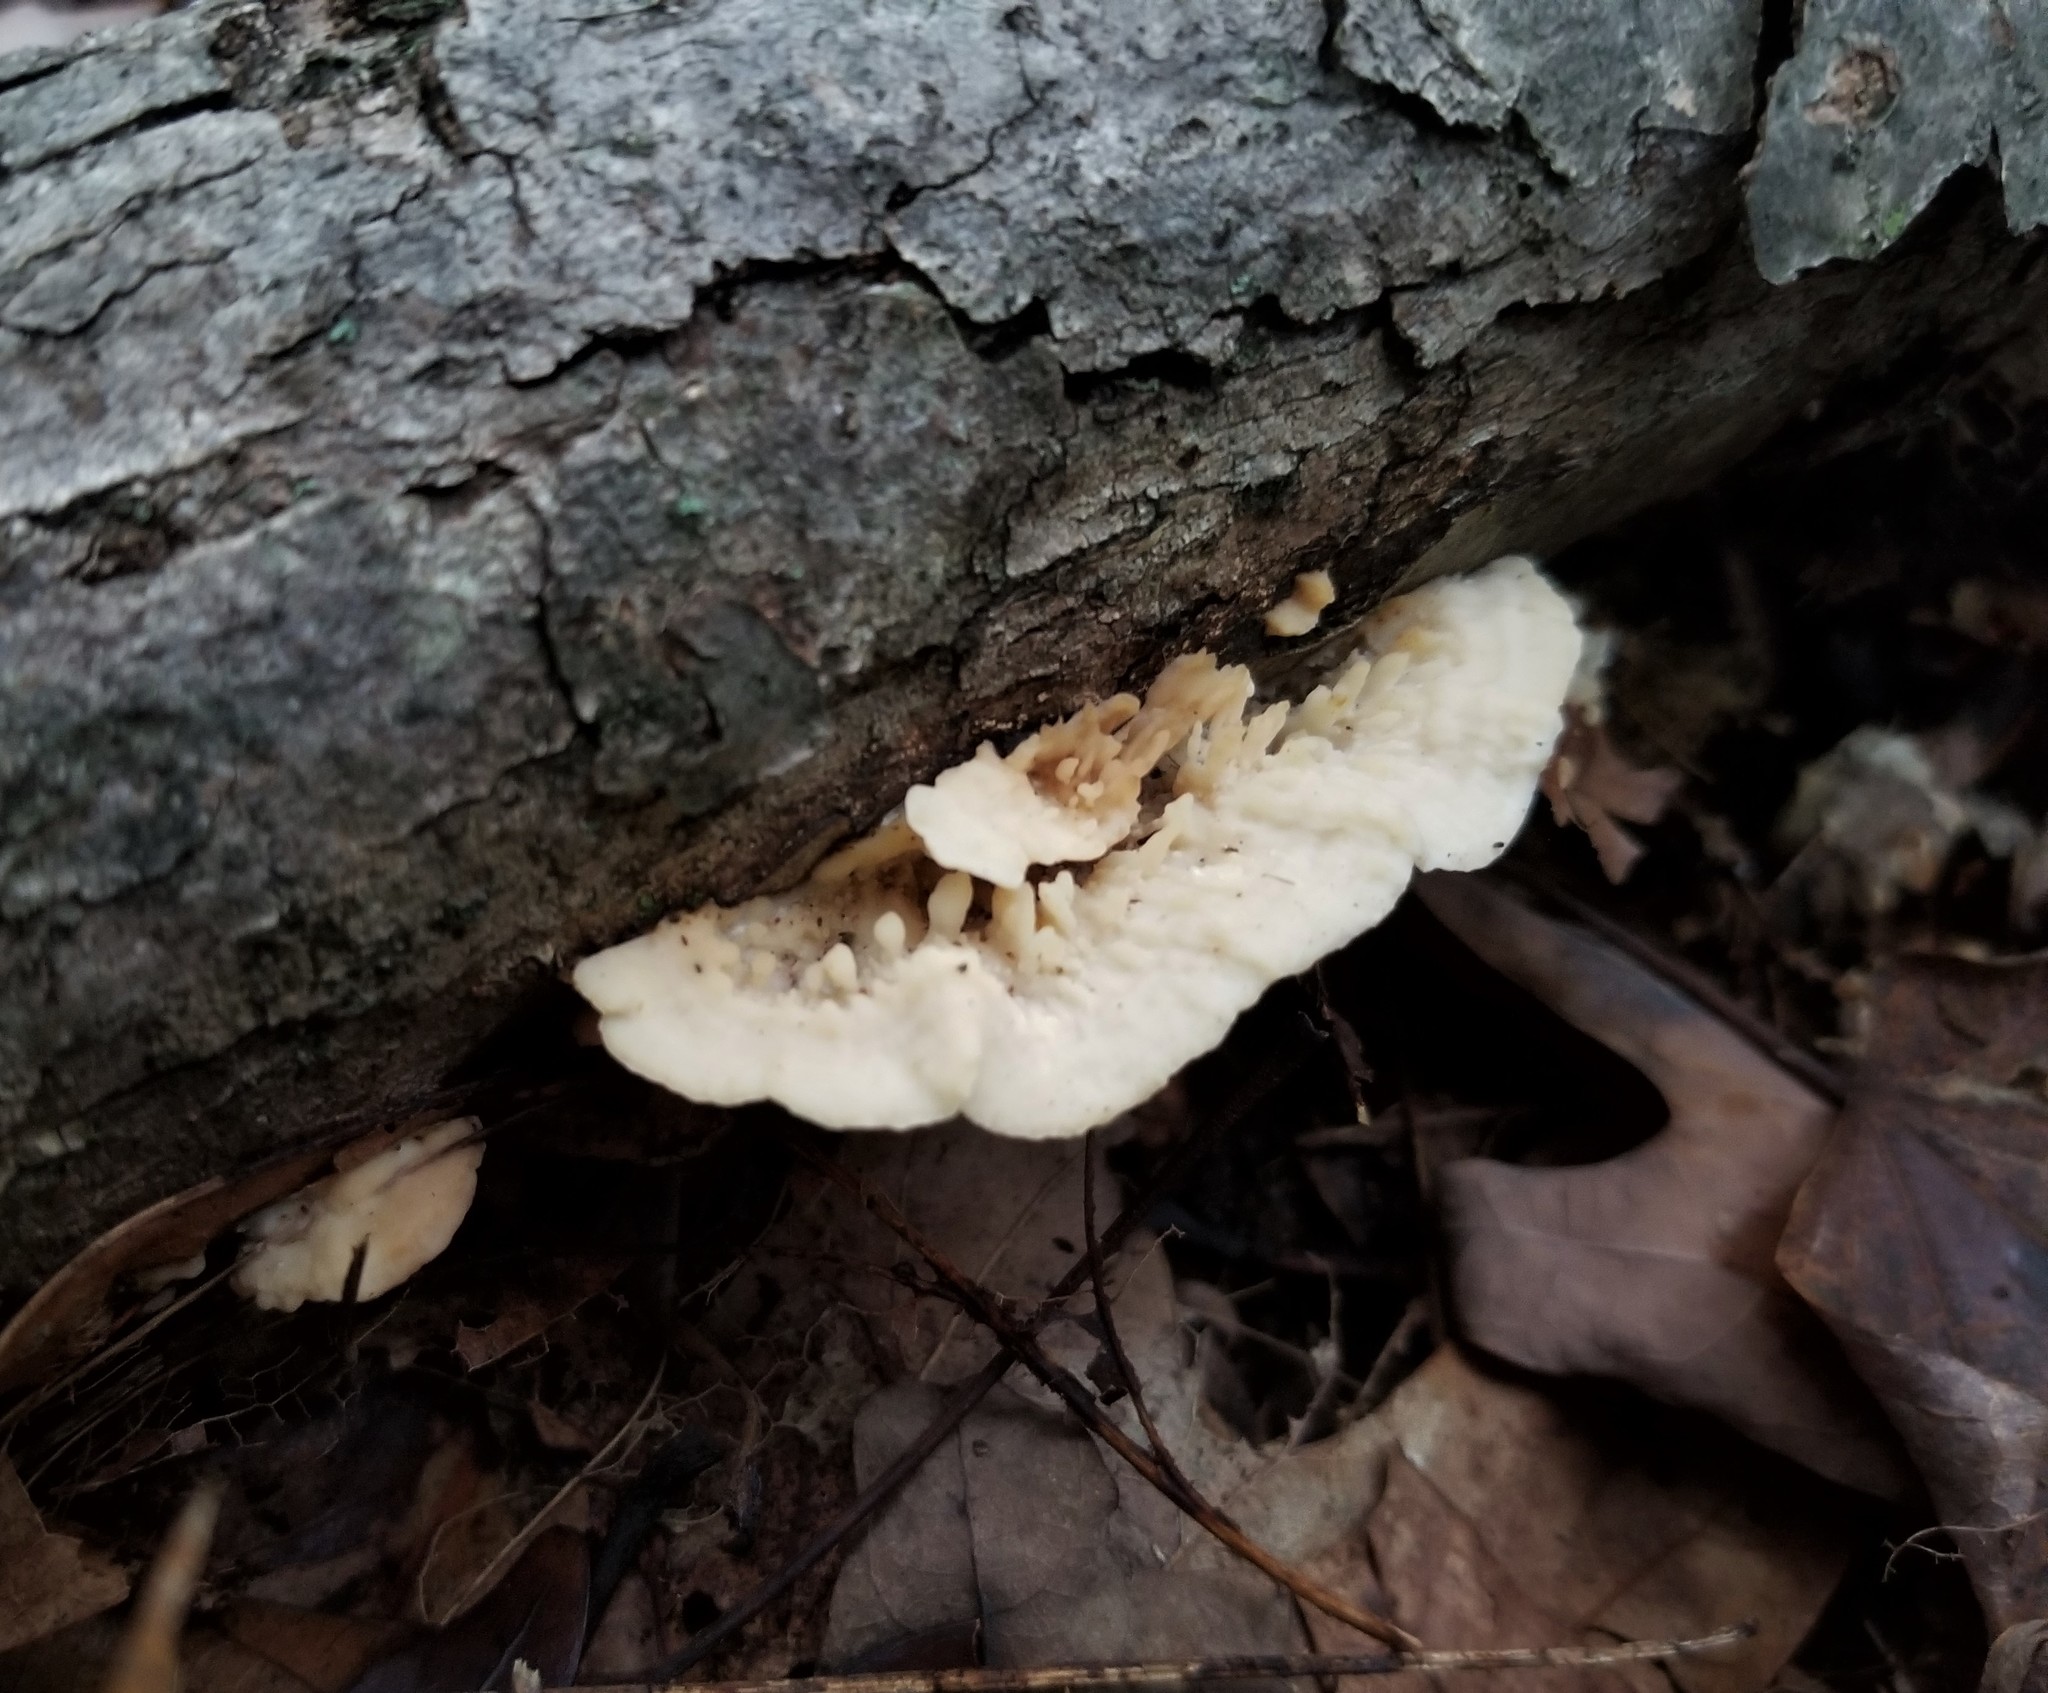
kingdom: Fungi
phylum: Basidiomycota
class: Agaricomycetes
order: Polyporales
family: Steccherinaceae
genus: Antrodiella
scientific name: Antrodiella semisupina
